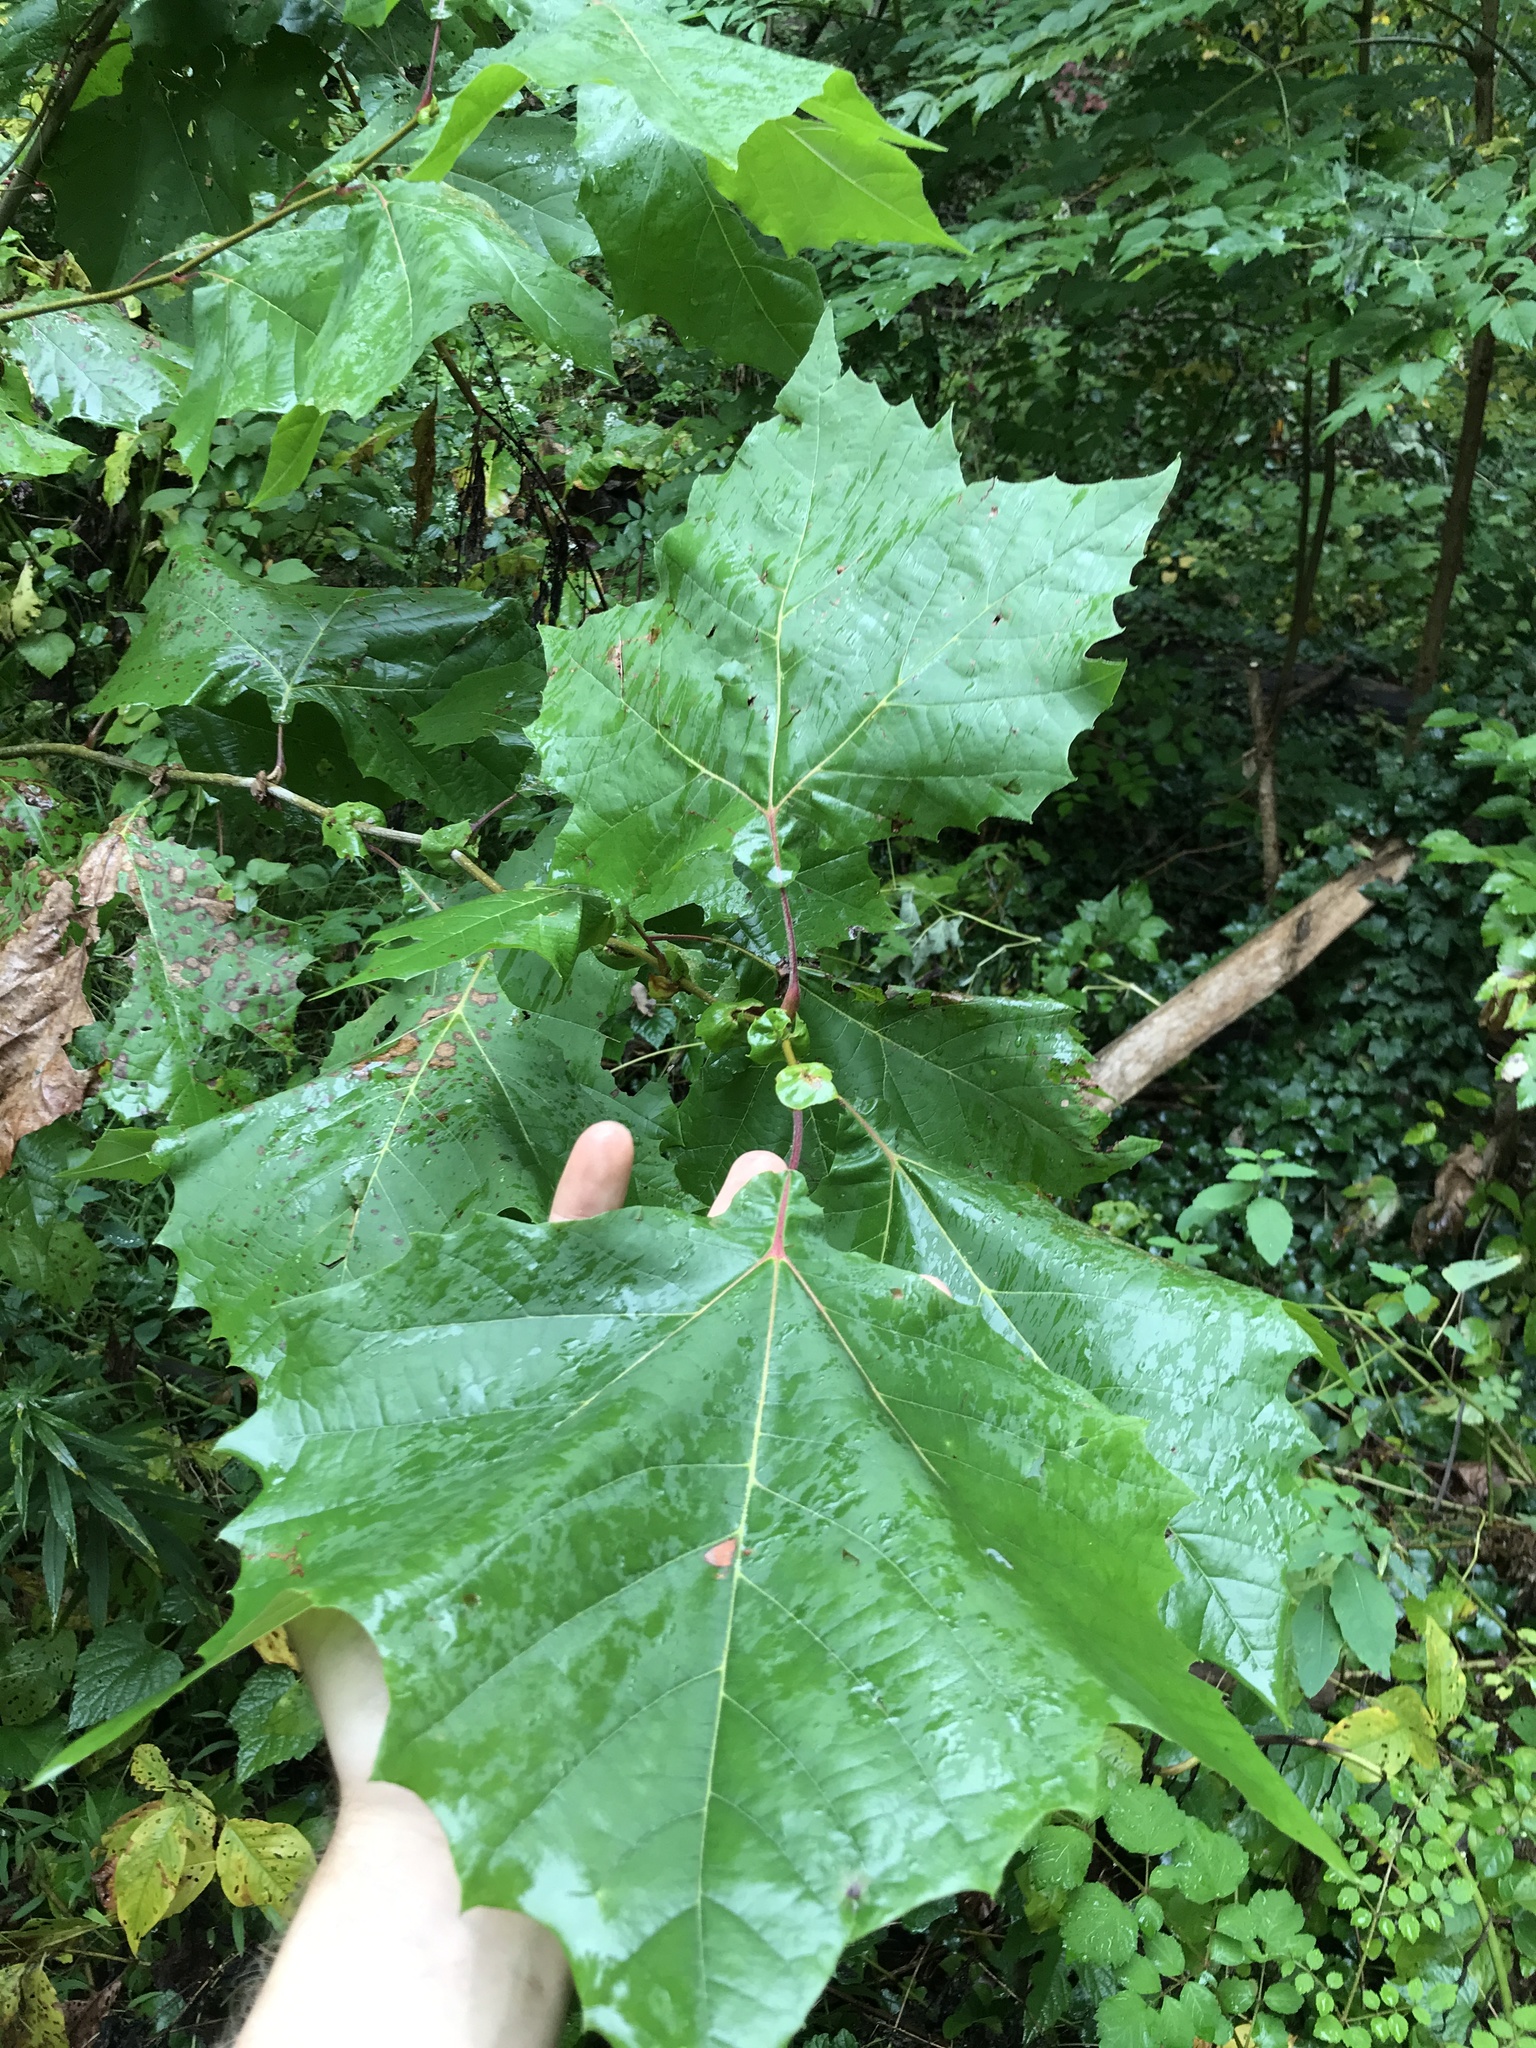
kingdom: Plantae
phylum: Tracheophyta
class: Magnoliopsida
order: Proteales
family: Platanaceae
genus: Platanus
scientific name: Platanus occidentalis
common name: American sycamore
